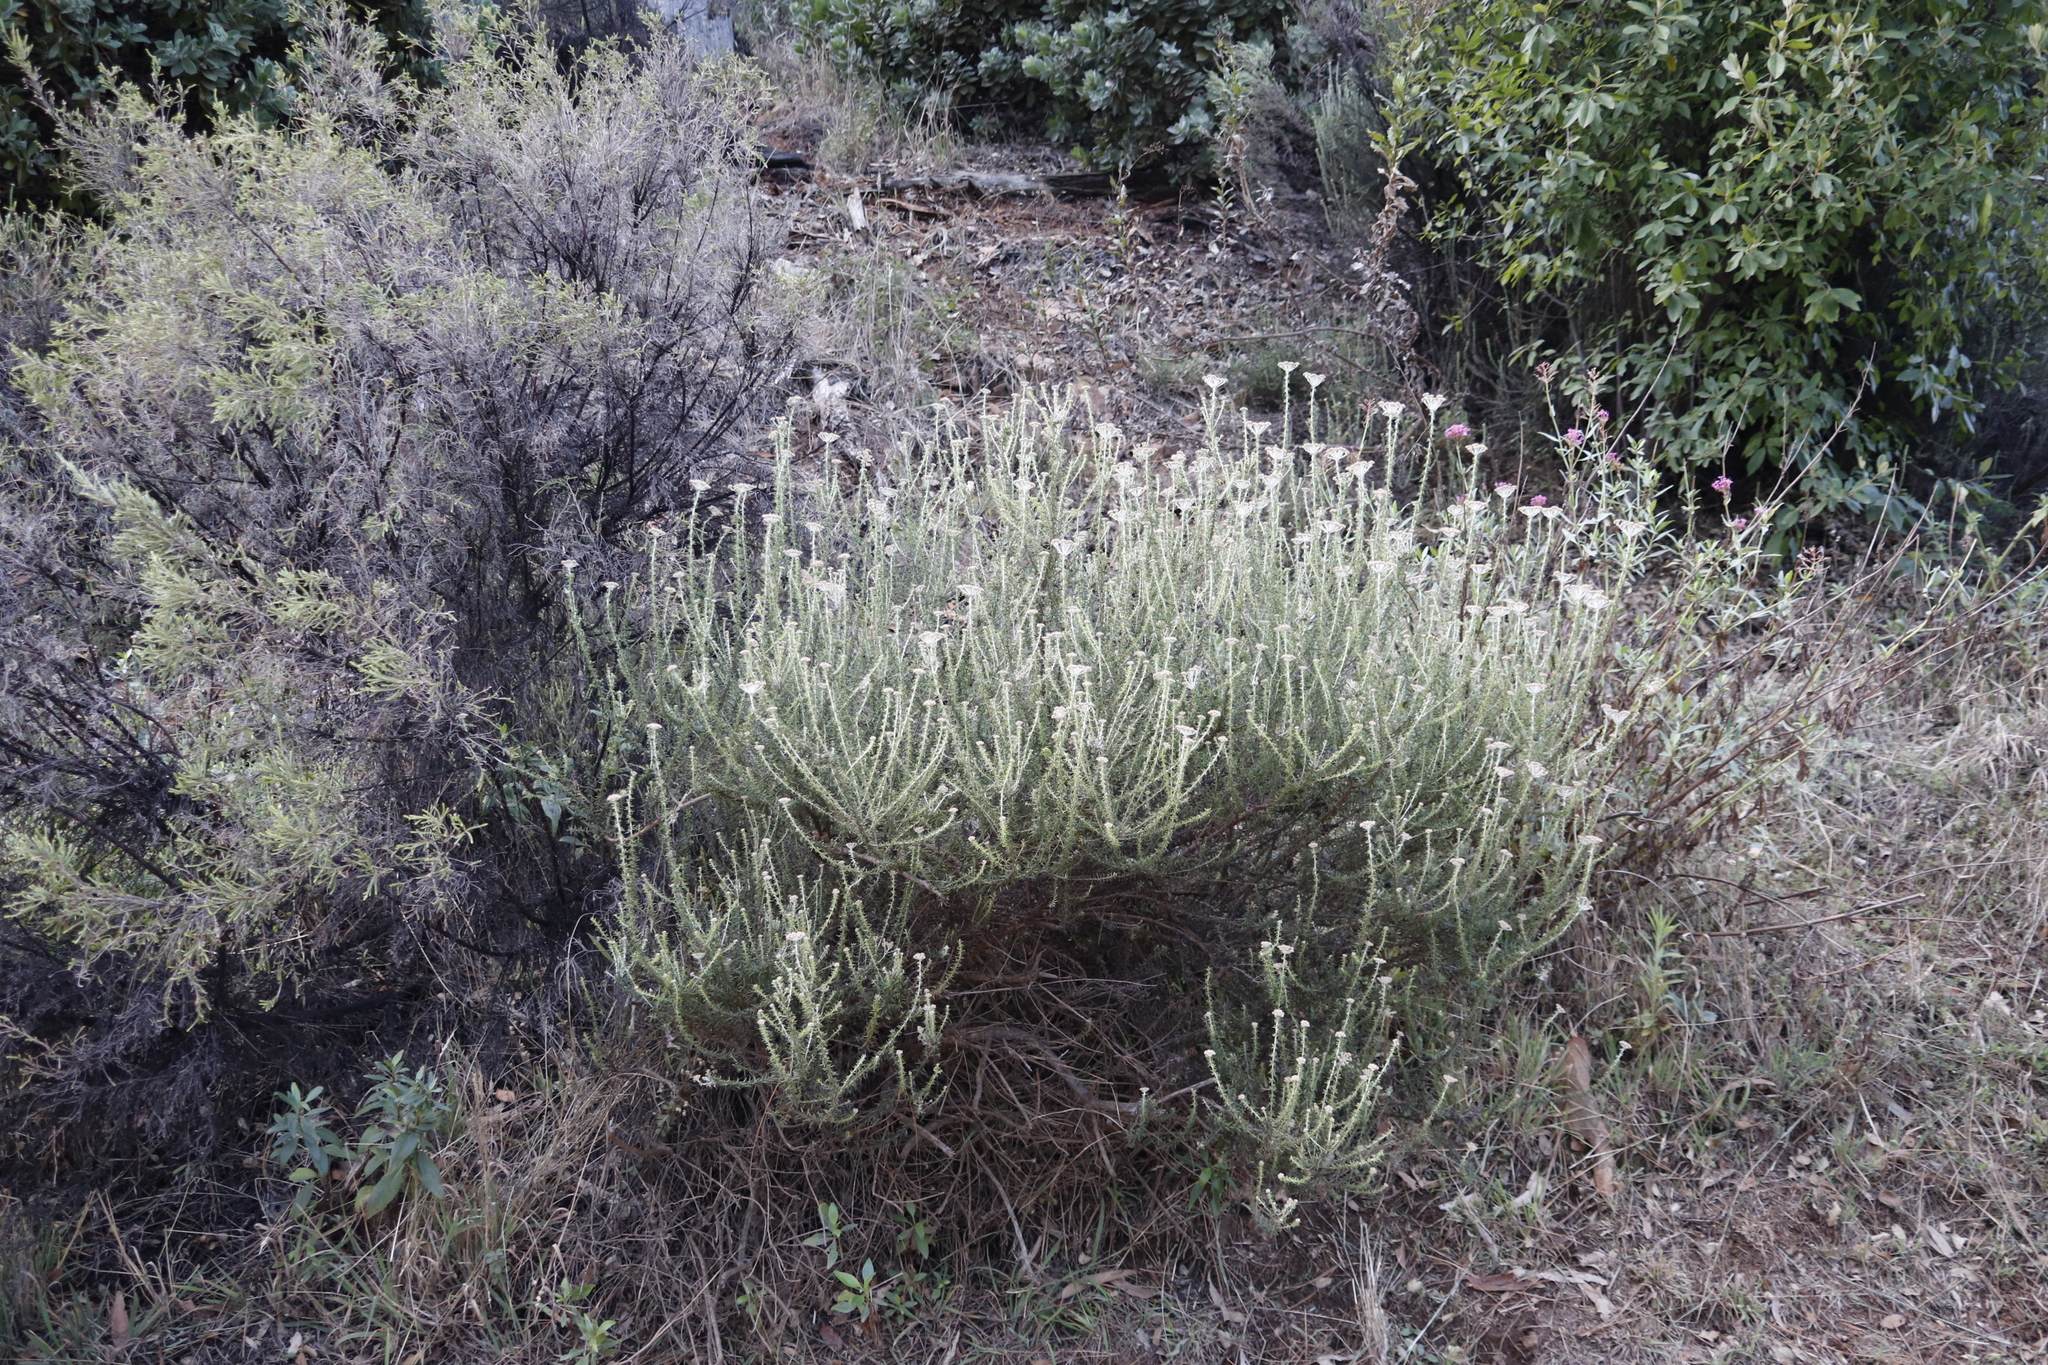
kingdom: Plantae
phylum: Tracheophyta
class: Magnoliopsida
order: Asterales
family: Asteraceae
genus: Metalasia
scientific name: Metalasia densa
